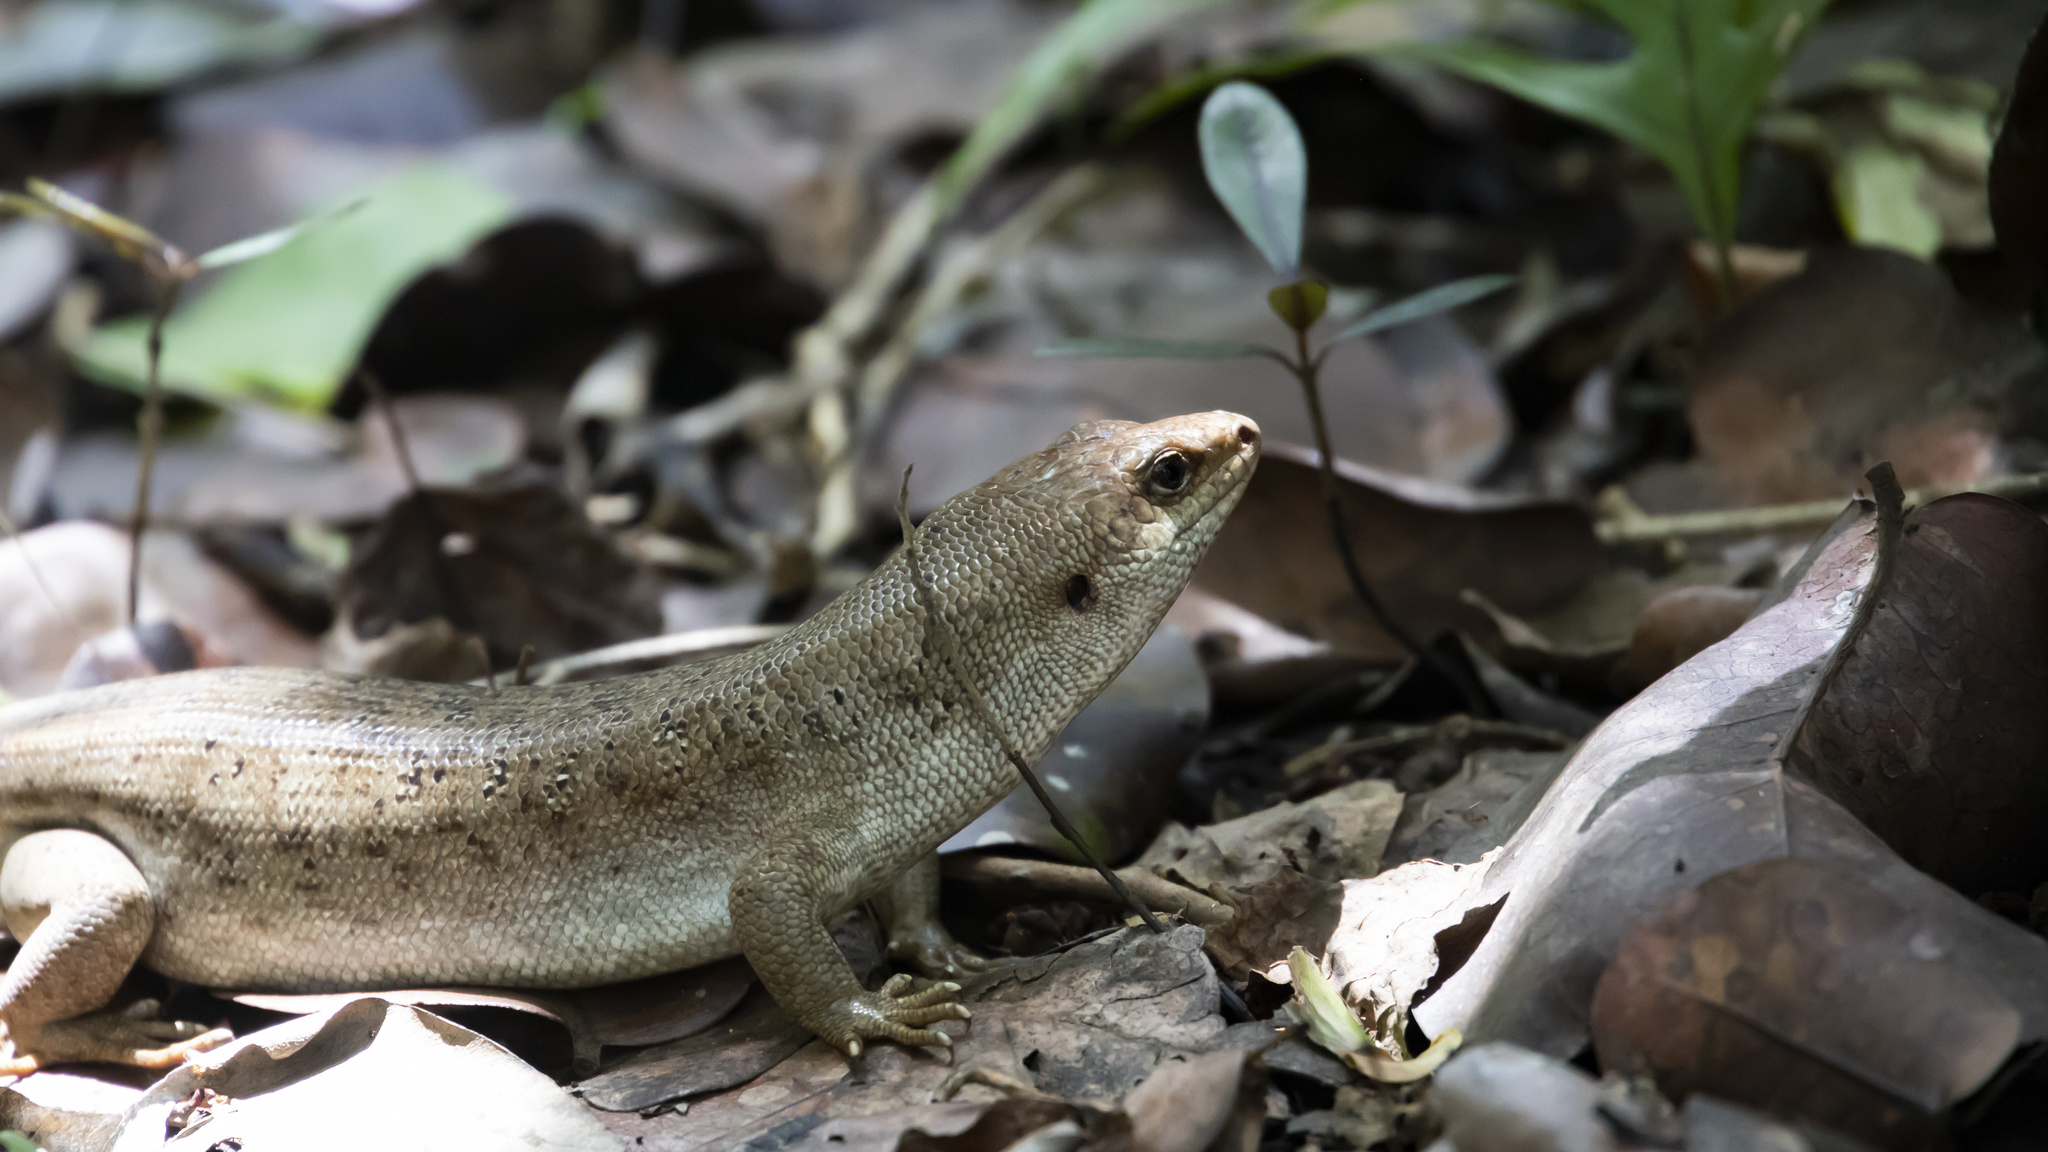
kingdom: Animalia
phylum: Chordata
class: Squamata
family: Scincidae
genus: Leiolopisma
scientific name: Leiolopisma telfairii
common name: Round island skink
